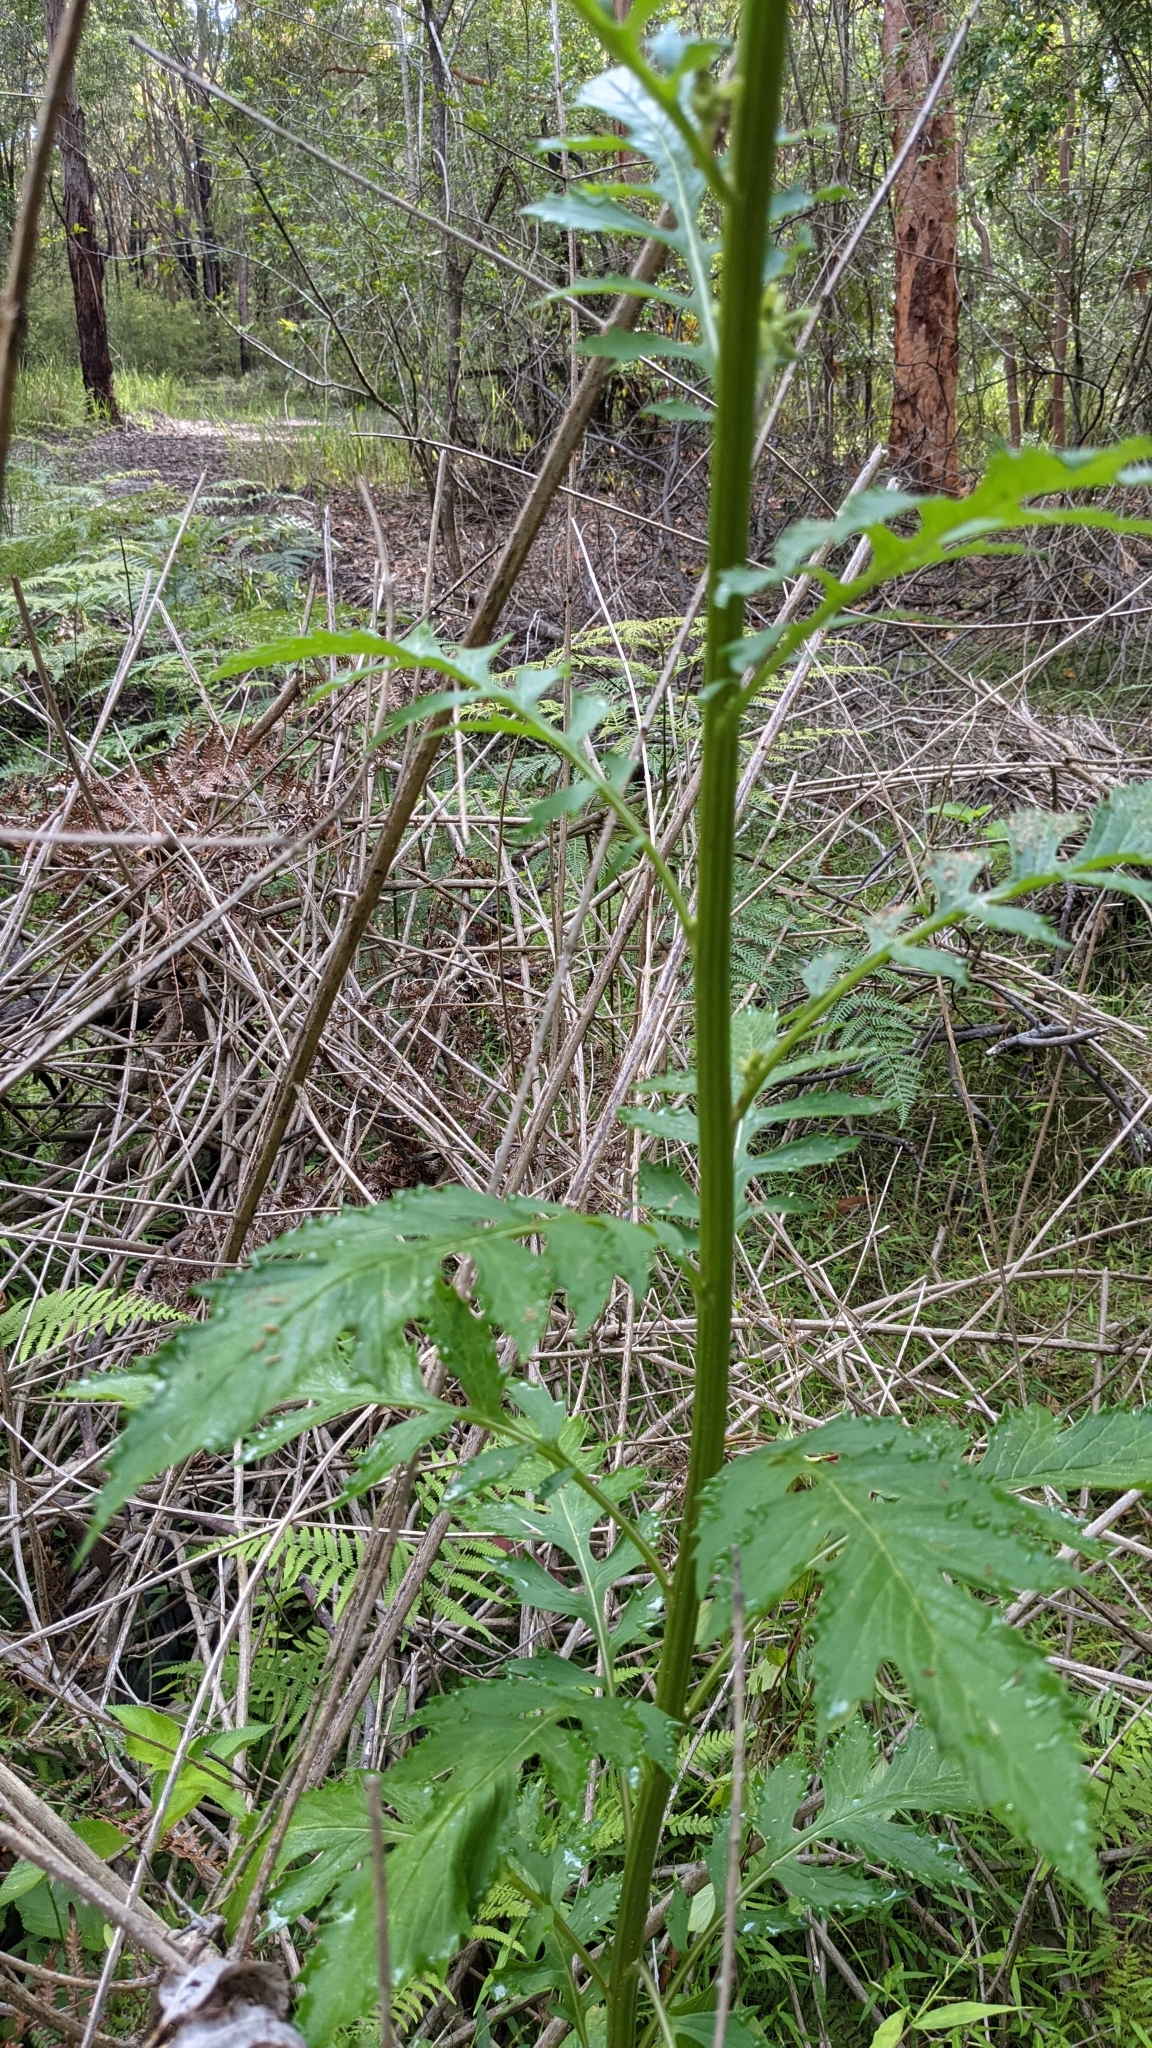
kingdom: Plantae
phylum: Tracheophyta
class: Magnoliopsida
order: Asterales
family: Asteraceae
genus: Erechtites
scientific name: Erechtites valerianifolius
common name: Tropical burnweed
